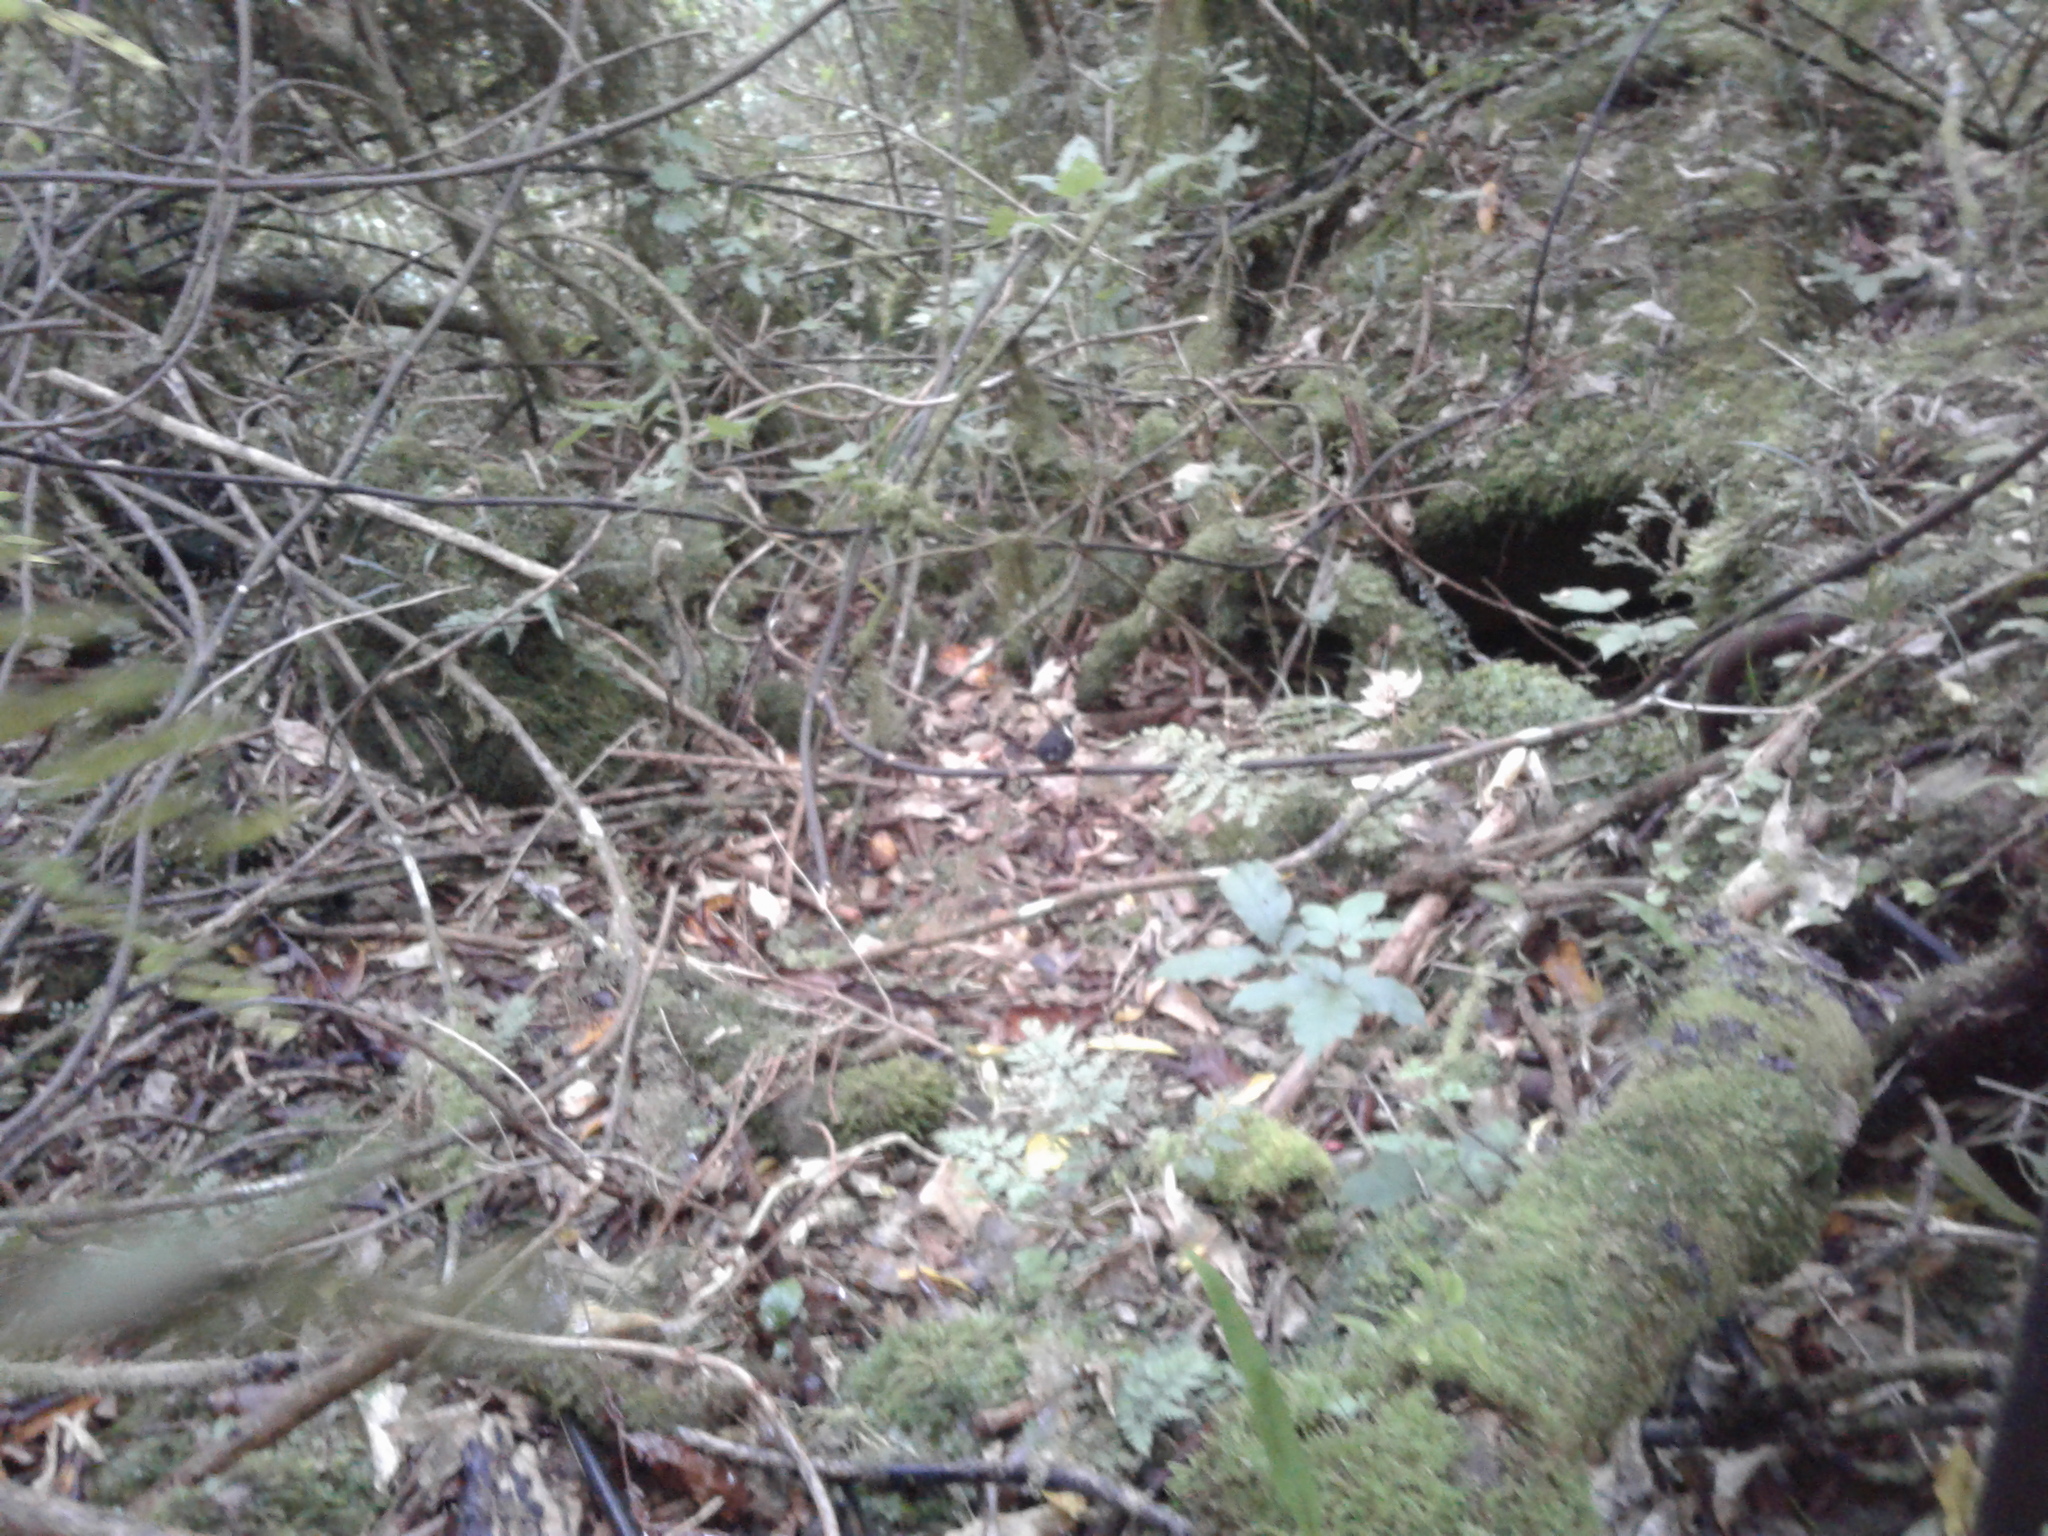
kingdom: Animalia
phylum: Chordata
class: Aves
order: Passeriformes
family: Petroicidae
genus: Petroica
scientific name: Petroica macrocephala
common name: Tomtit
